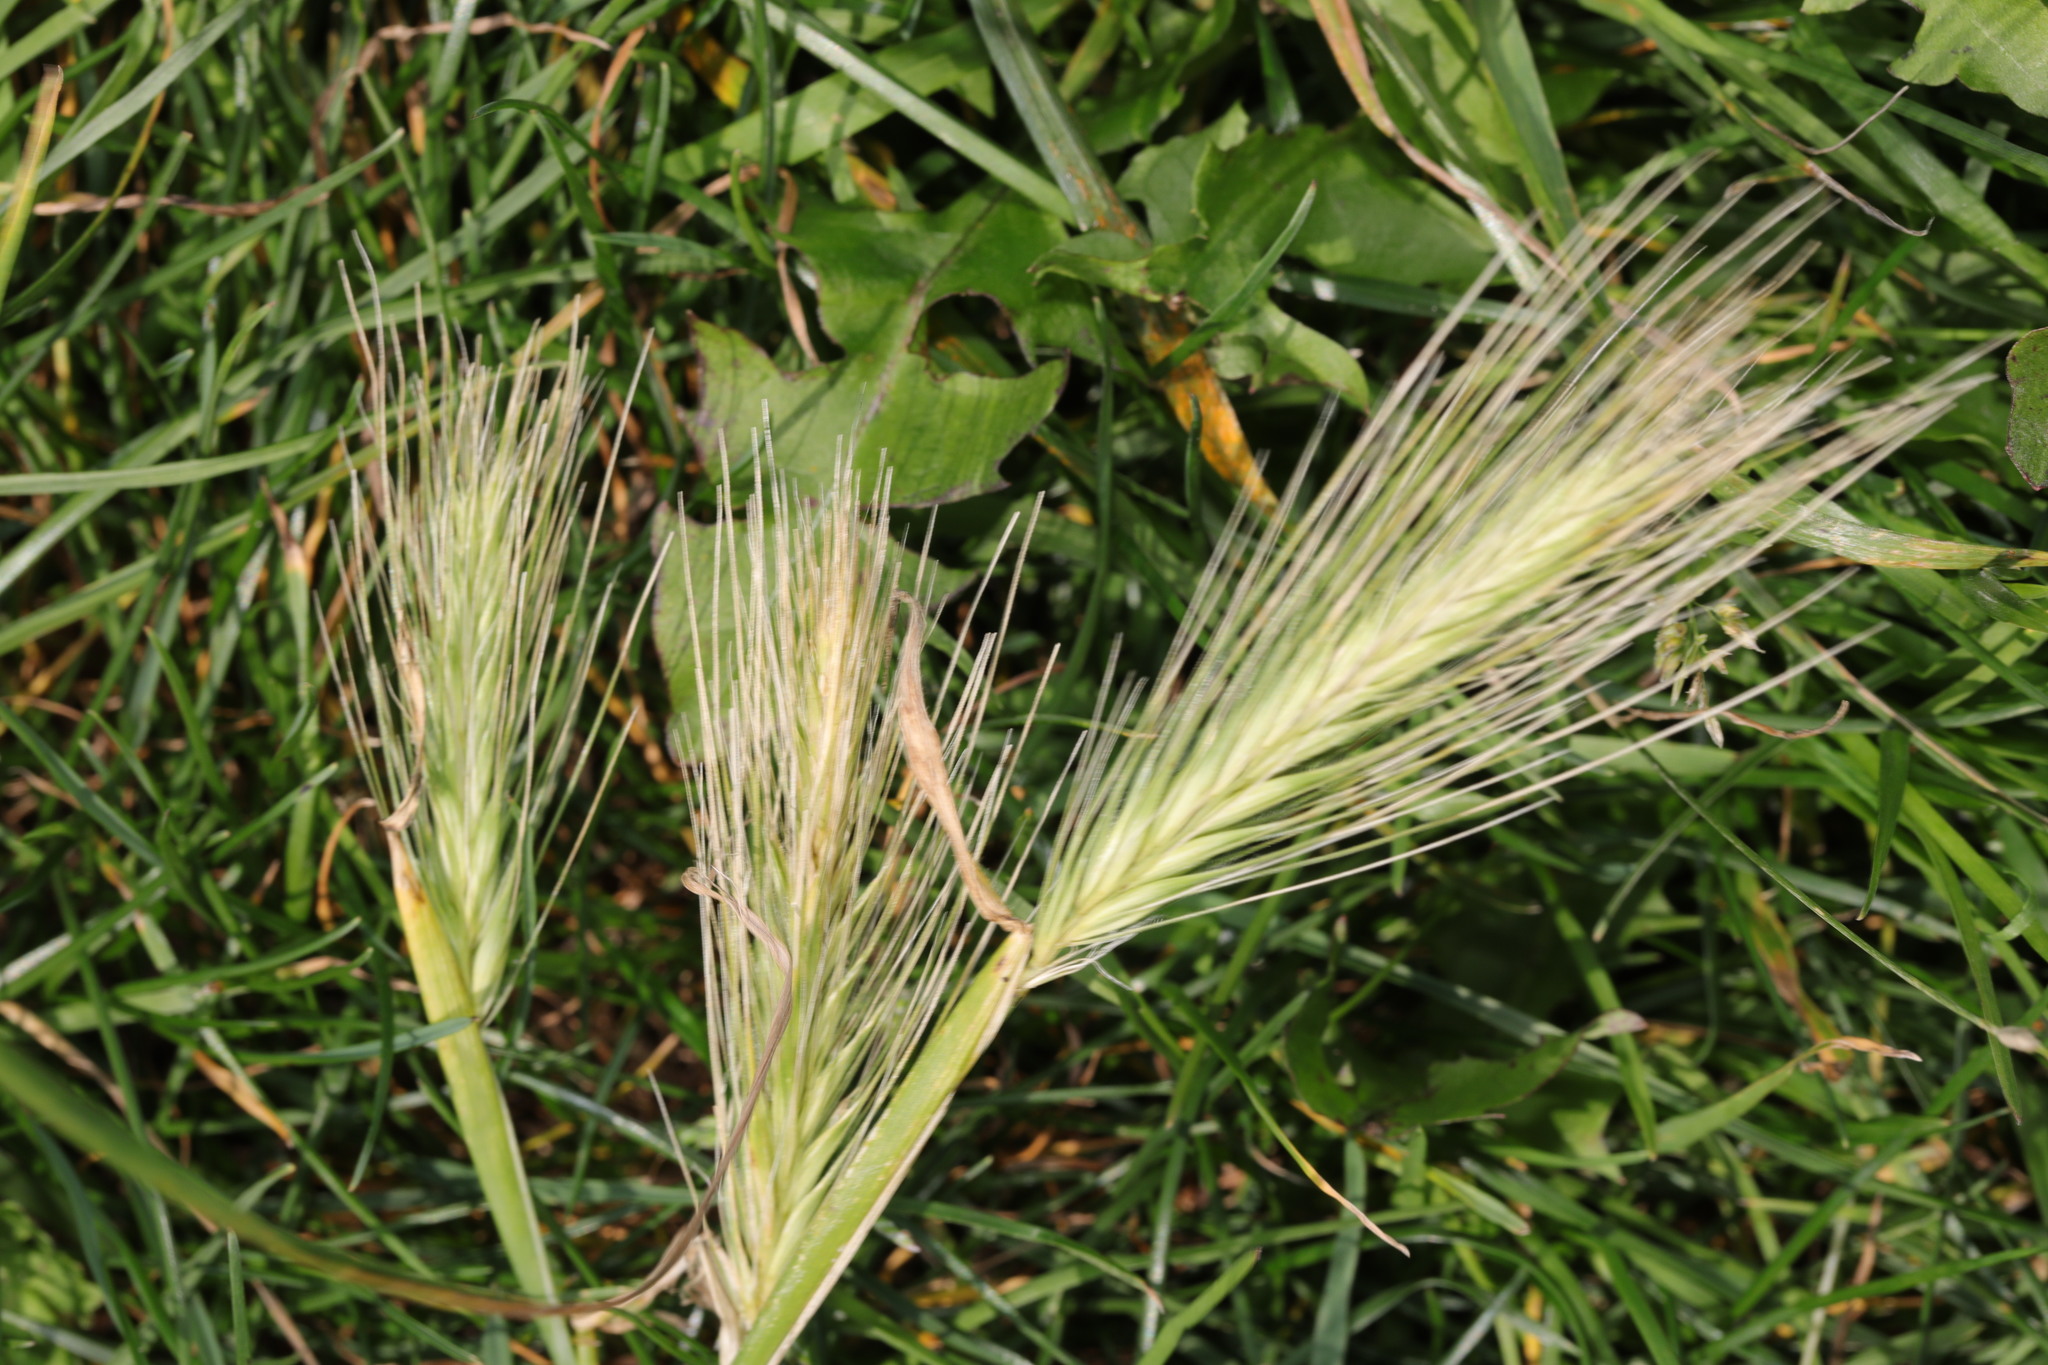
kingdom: Plantae
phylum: Tracheophyta
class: Liliopsida
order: Poales
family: Poaceae
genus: Hordeum
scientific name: Hordeum murinum
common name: Wall barley
